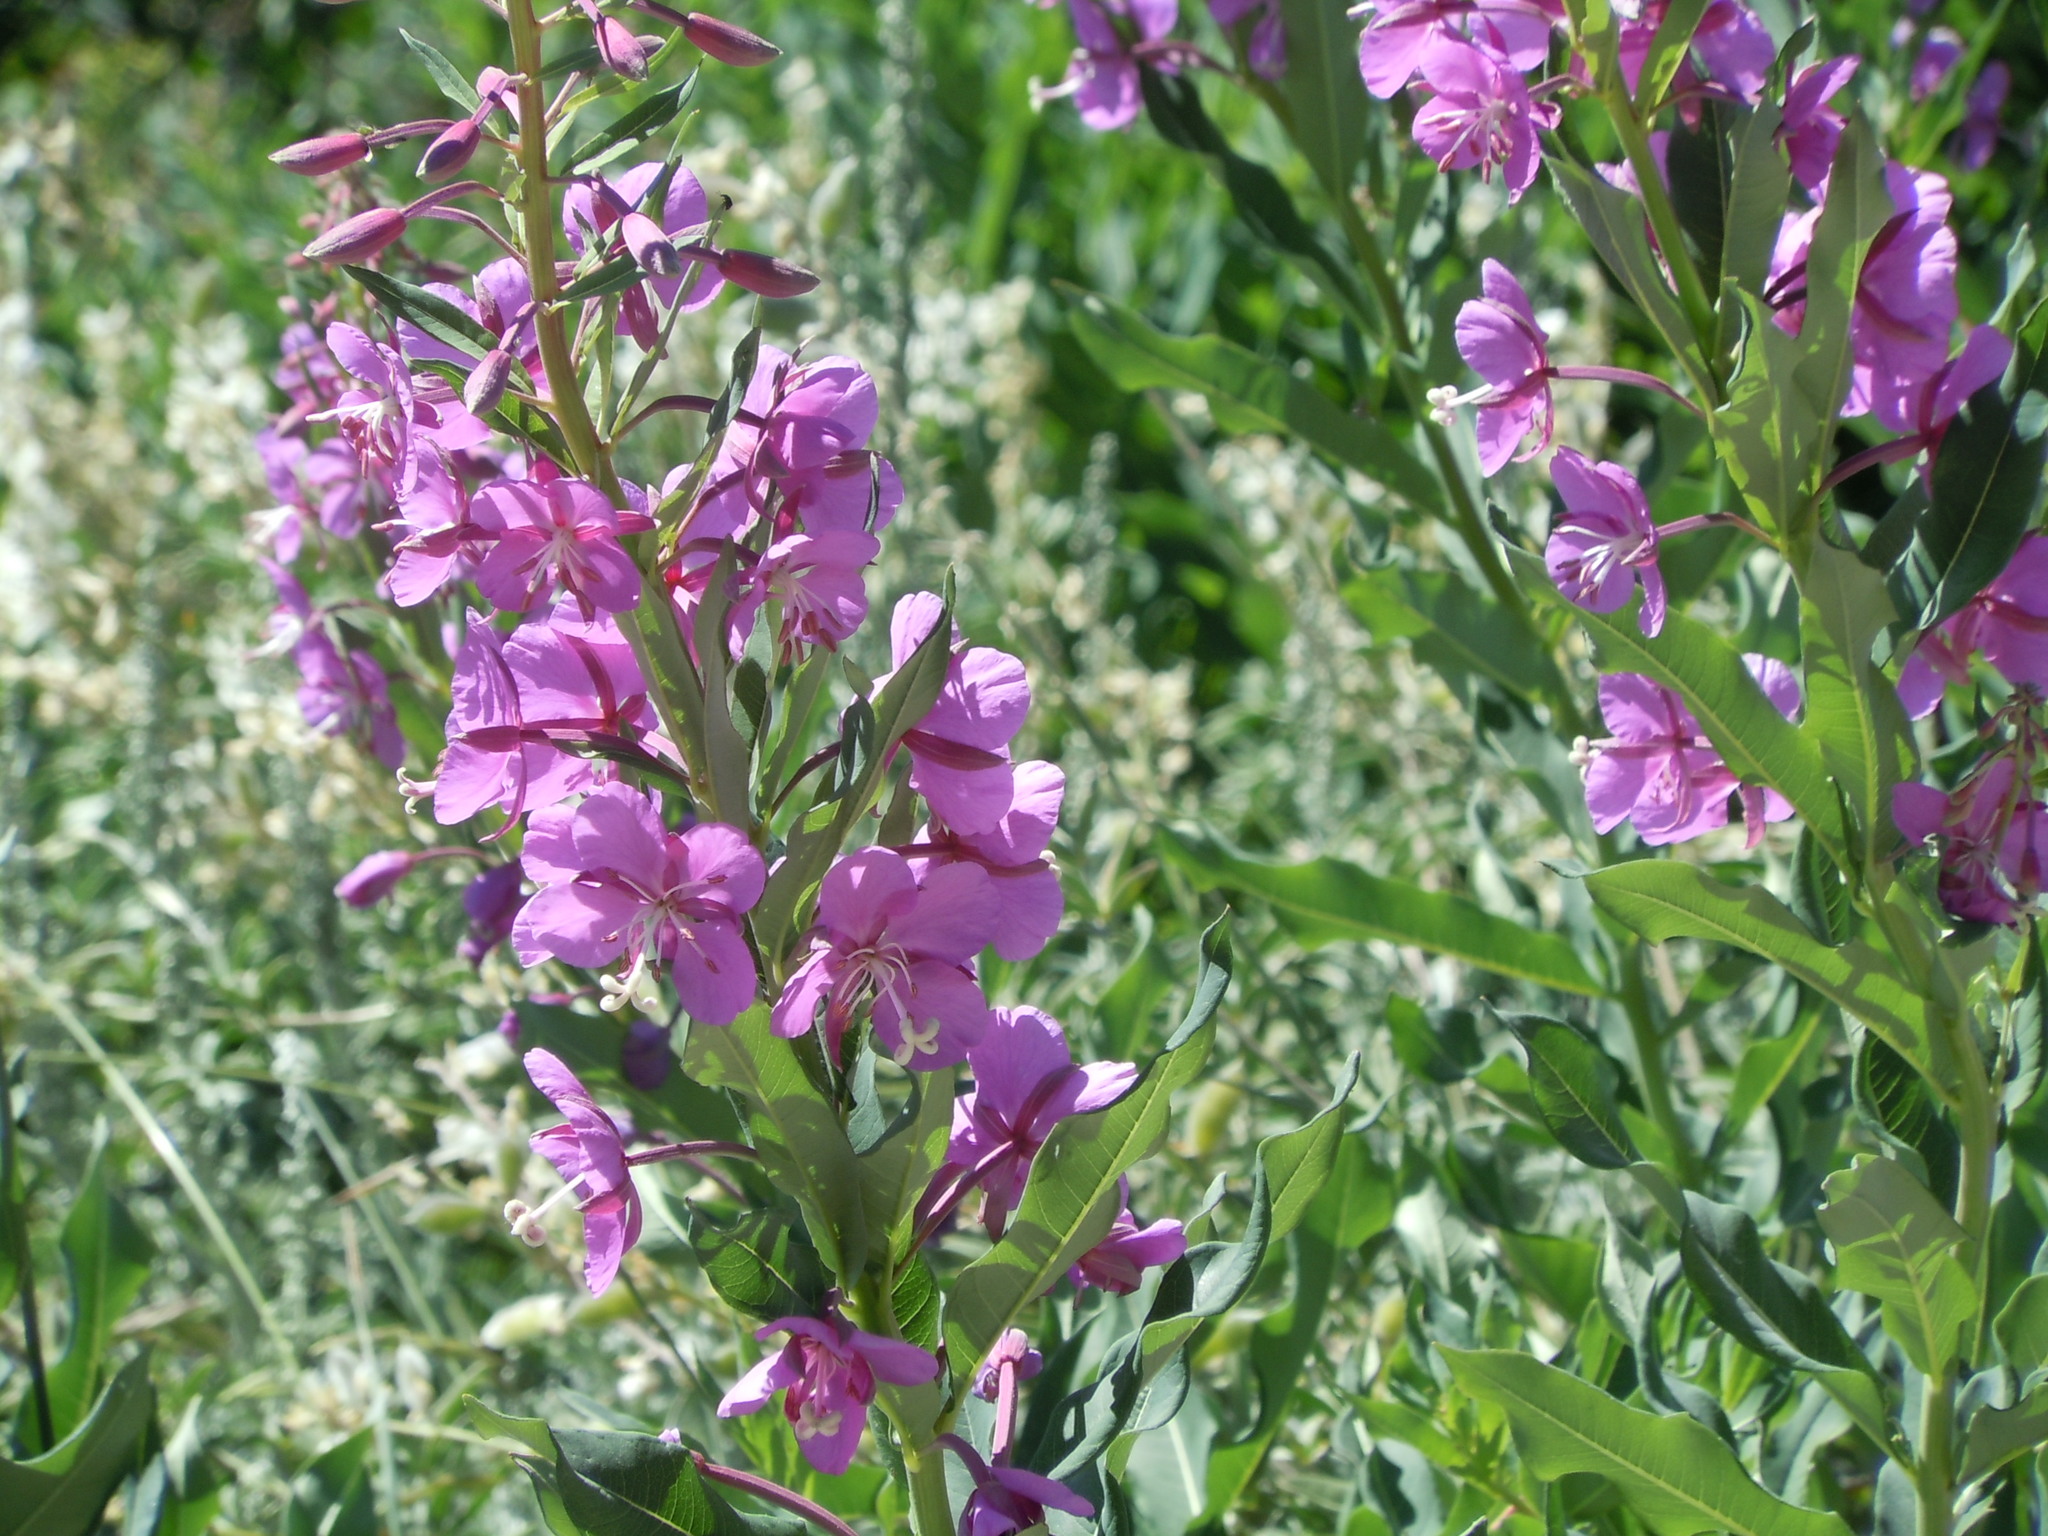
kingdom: Plantae
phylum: Tracheophyta
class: Magnoliopsida
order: Myrtales
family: Onagraceae
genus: Chamaenerion
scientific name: Chamaenerion angustifolium
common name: Fireweed
